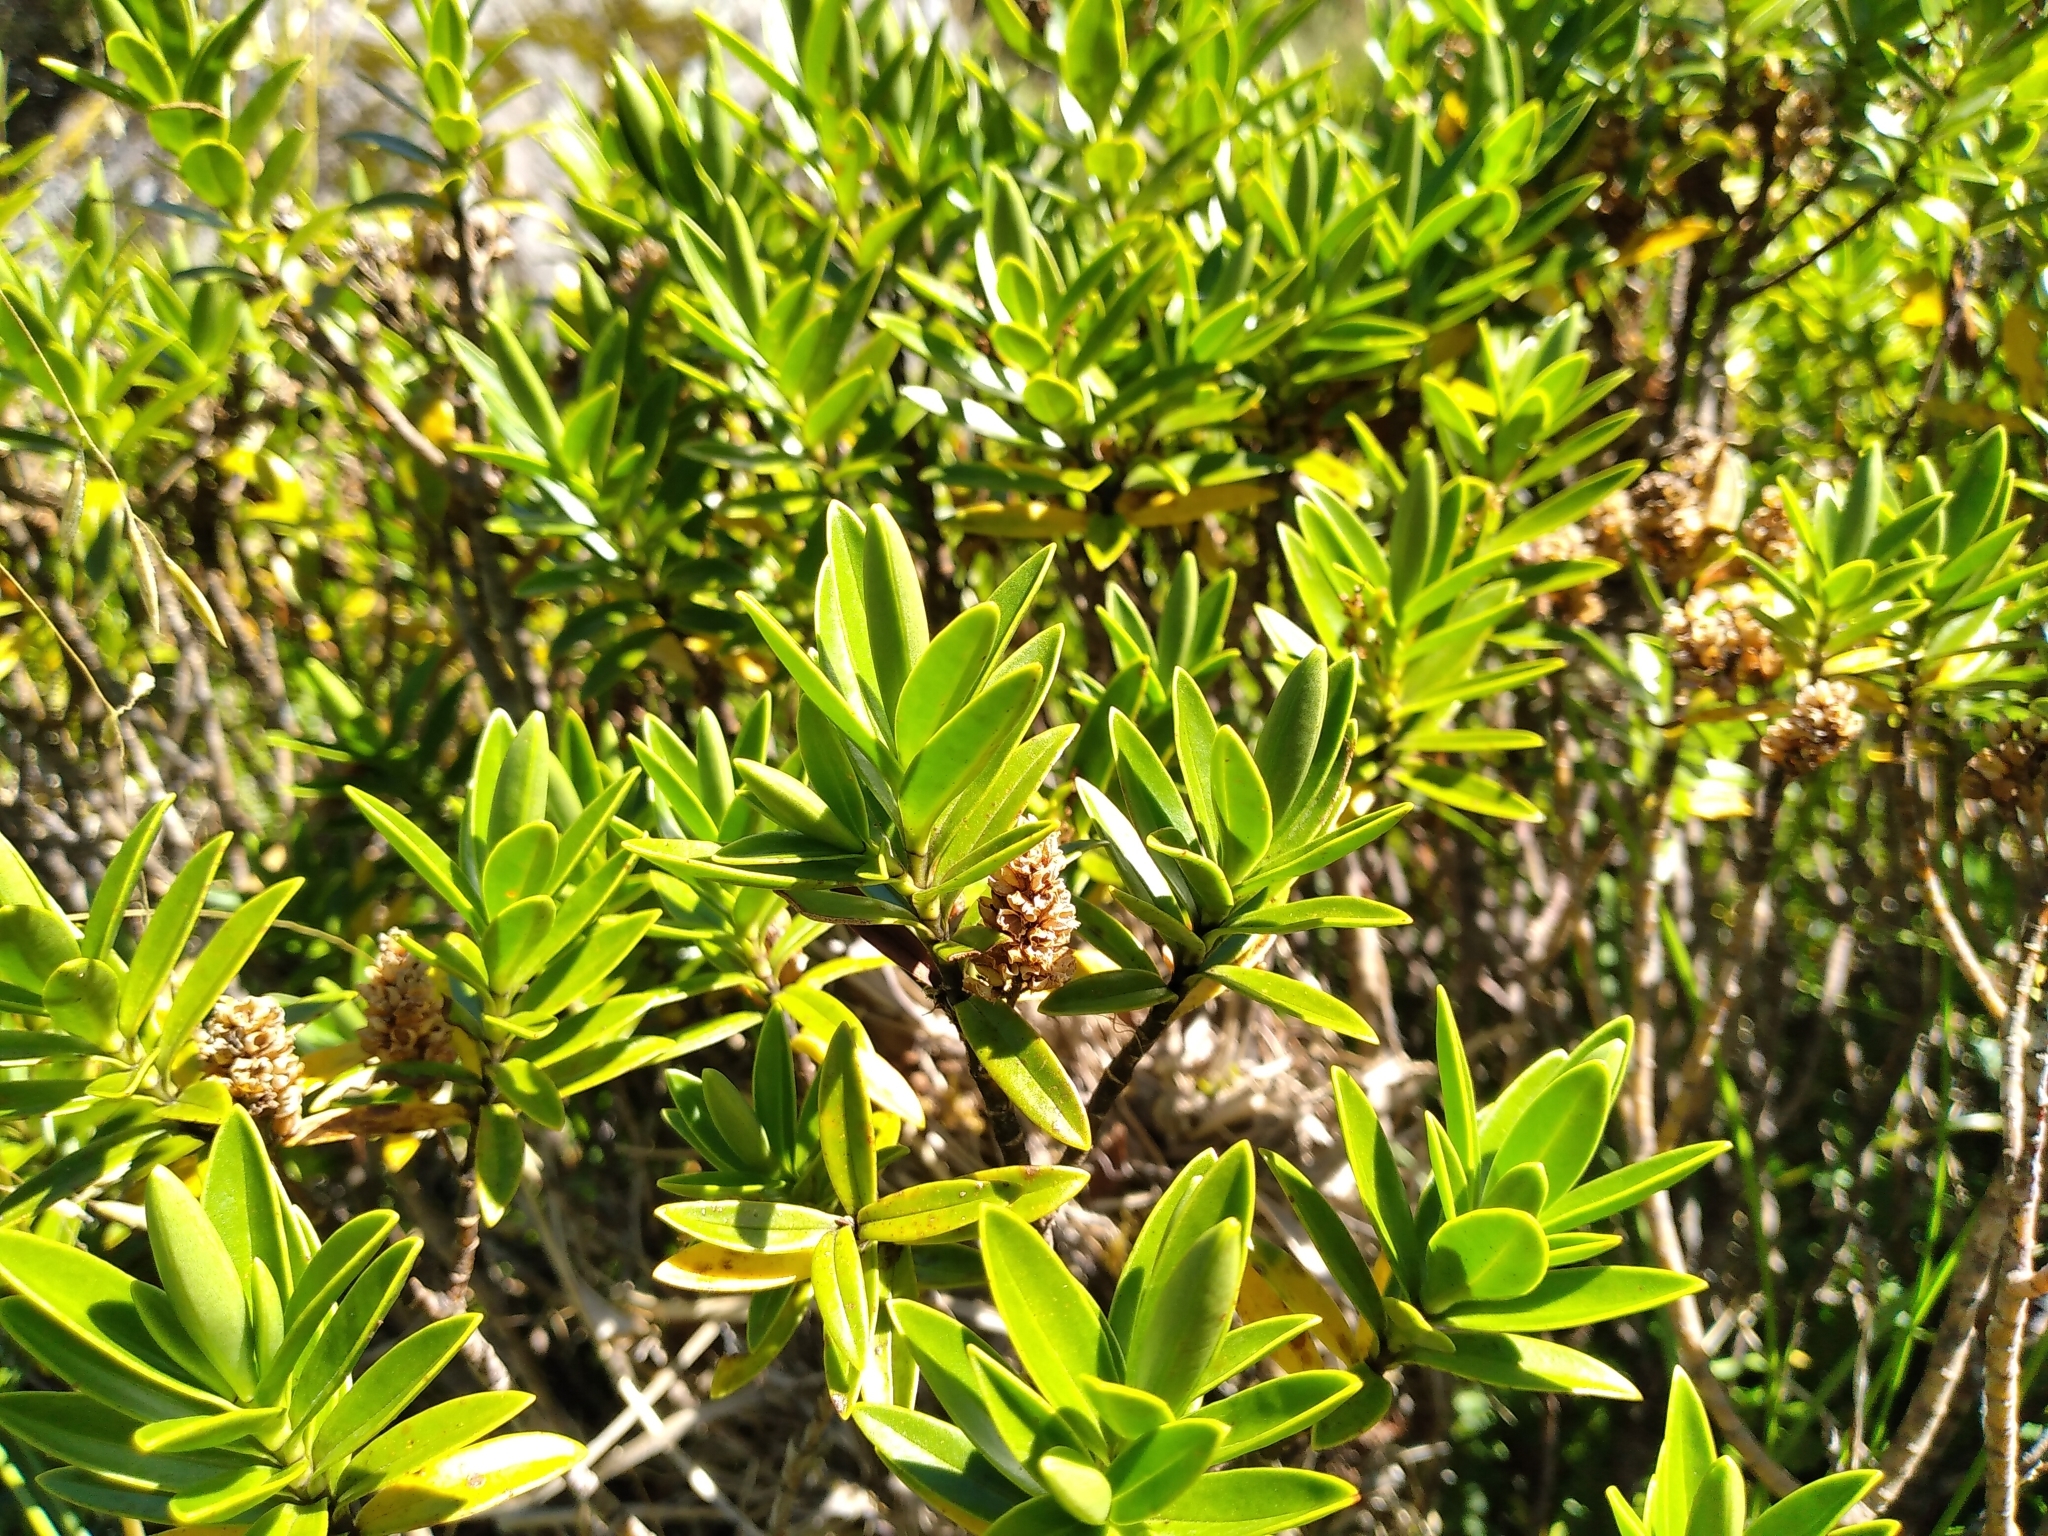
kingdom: Plantae
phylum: Tracheophyta
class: Magnoliopsida
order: Lamiales
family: Plantaginaceae
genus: Veronica
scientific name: Veronica subalpina
